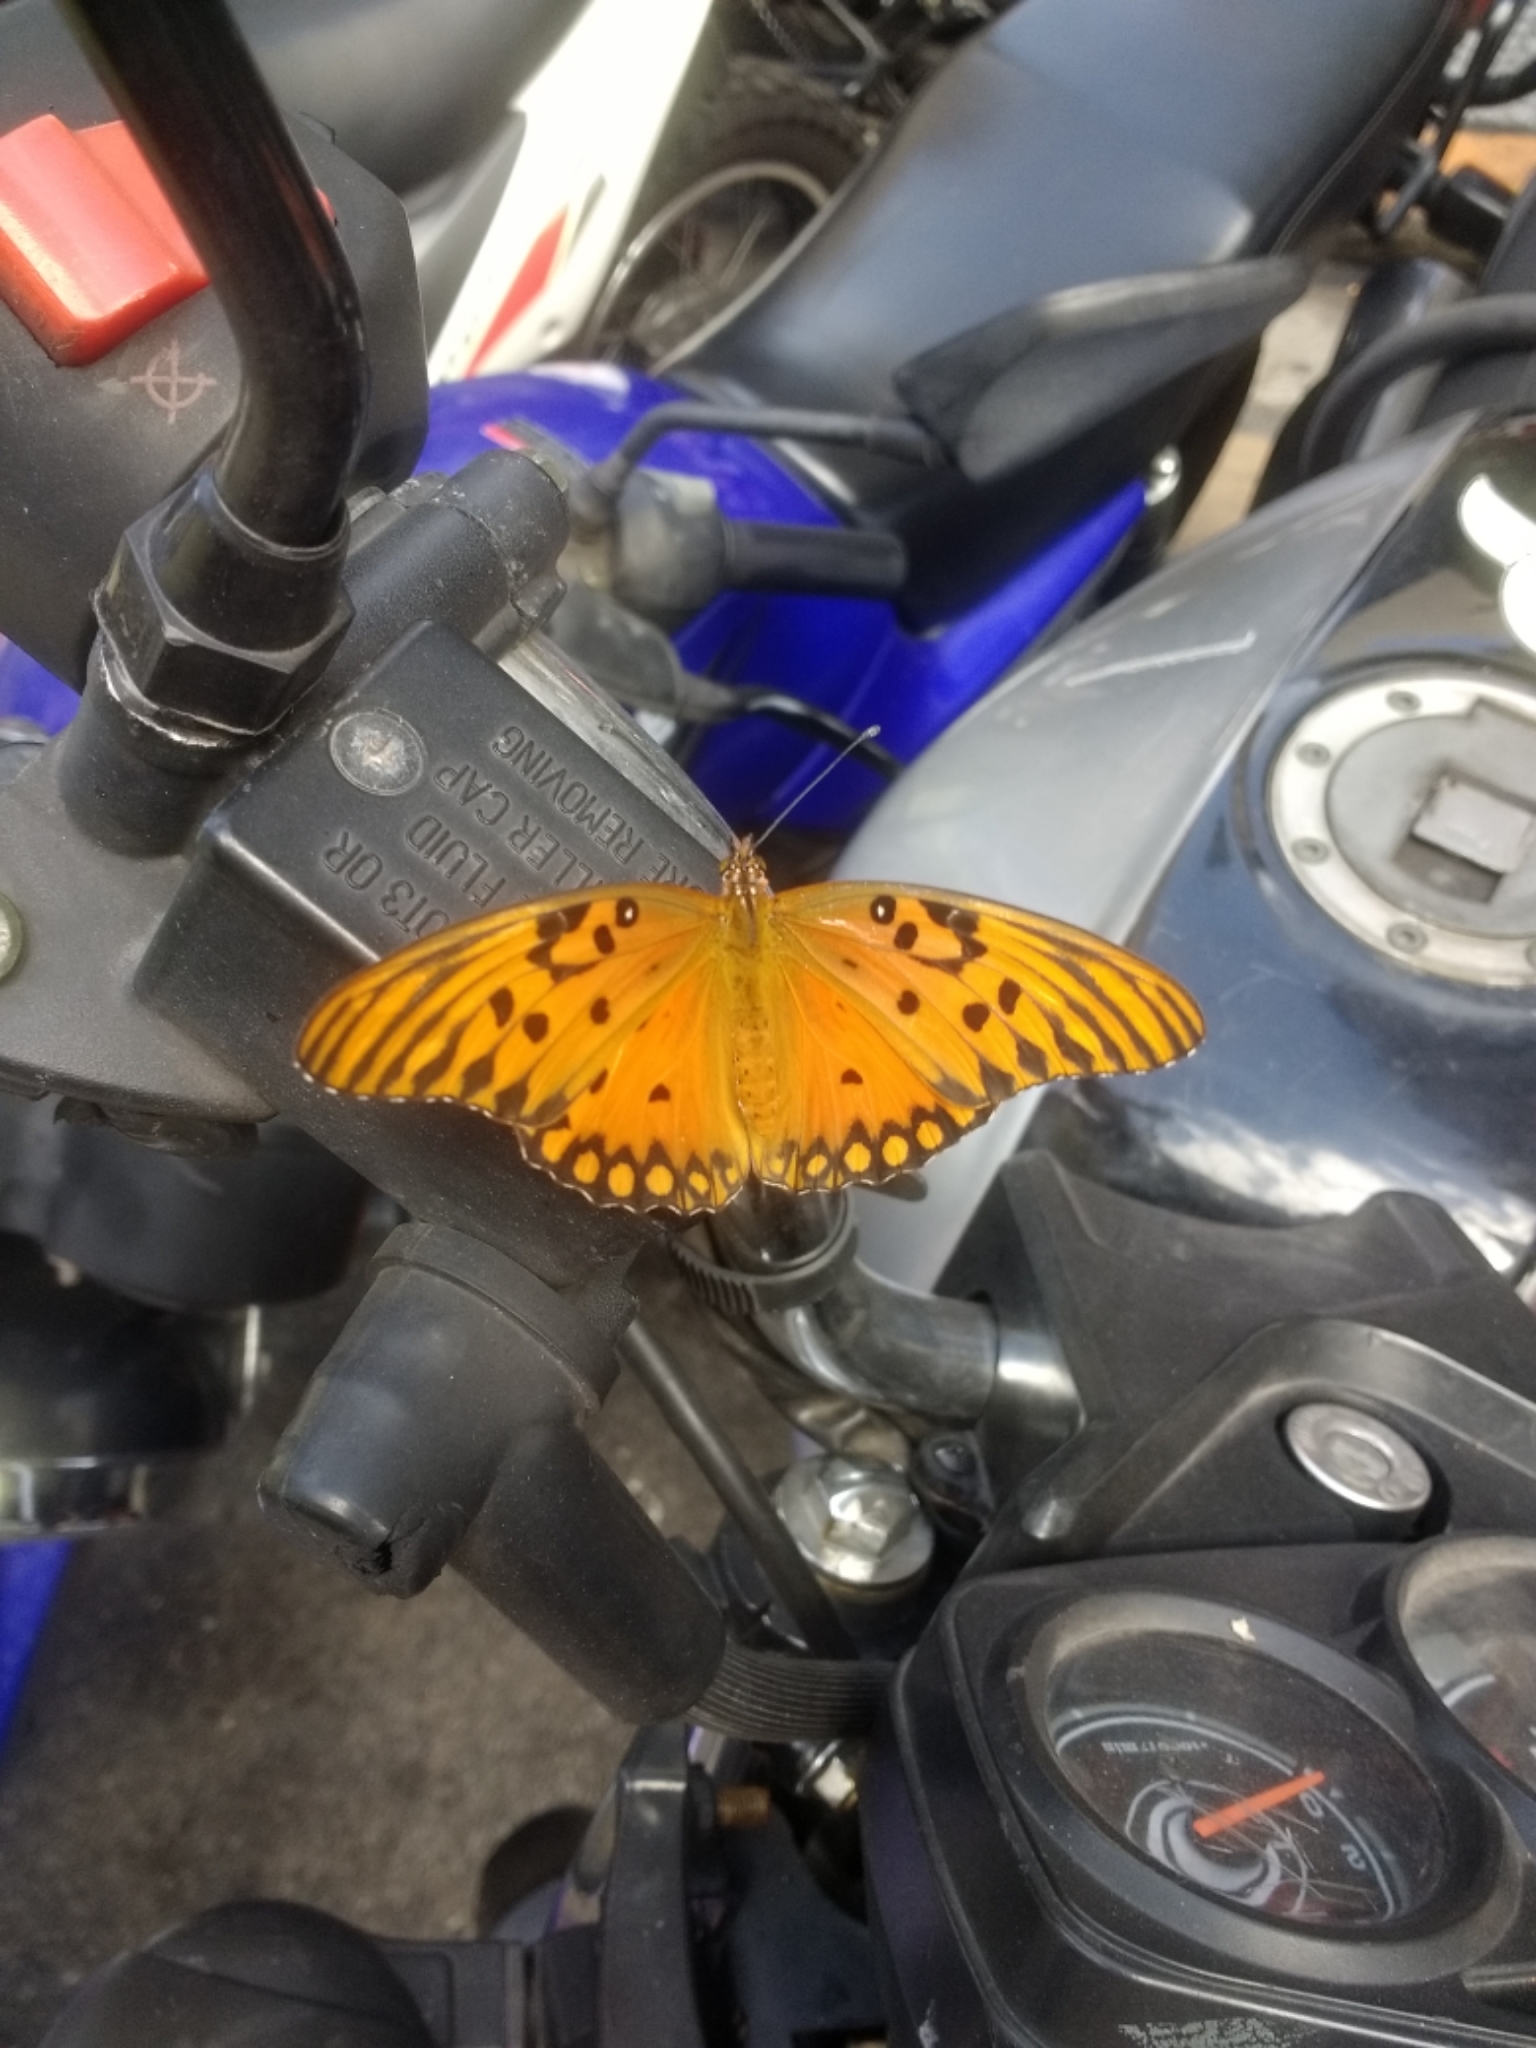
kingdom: Animalia
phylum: Arthropoda
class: Insecta
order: Lepidoptera
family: Nymphalidae
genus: Dione
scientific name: Dione vanillae
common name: Gulf fritillary
